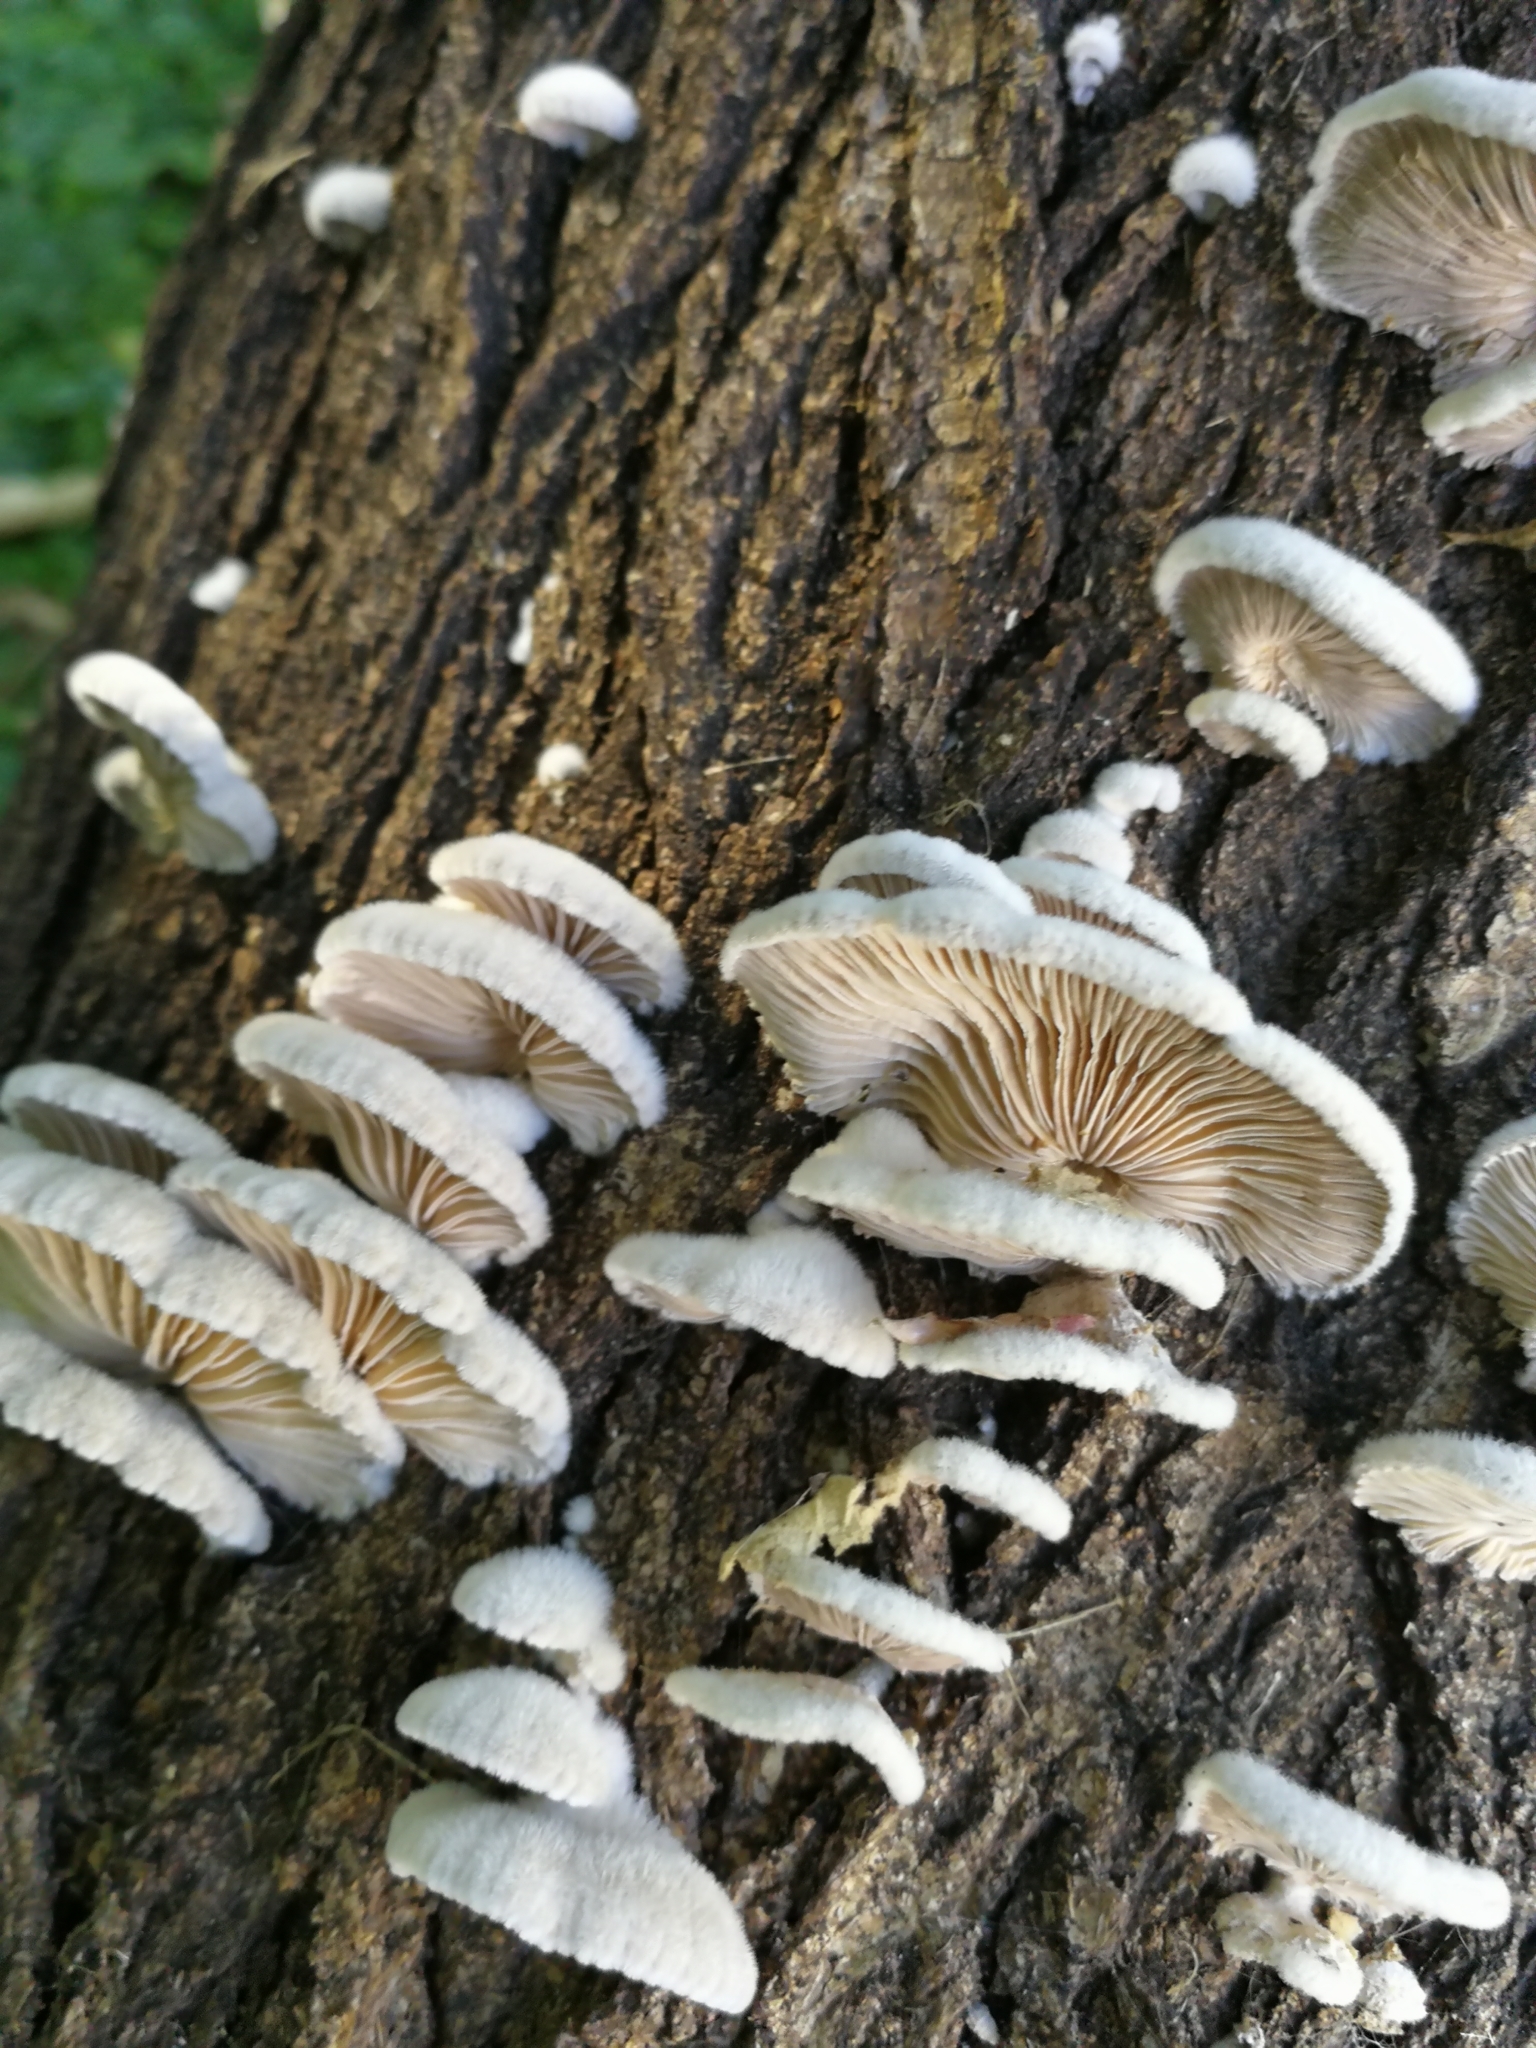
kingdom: Fungi
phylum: Basidiomycota
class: Agaricomycetes
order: Agaricales
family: Schizophyllaceae
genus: Schizophyllum
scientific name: Schizophyllum commune
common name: Common porecrust
